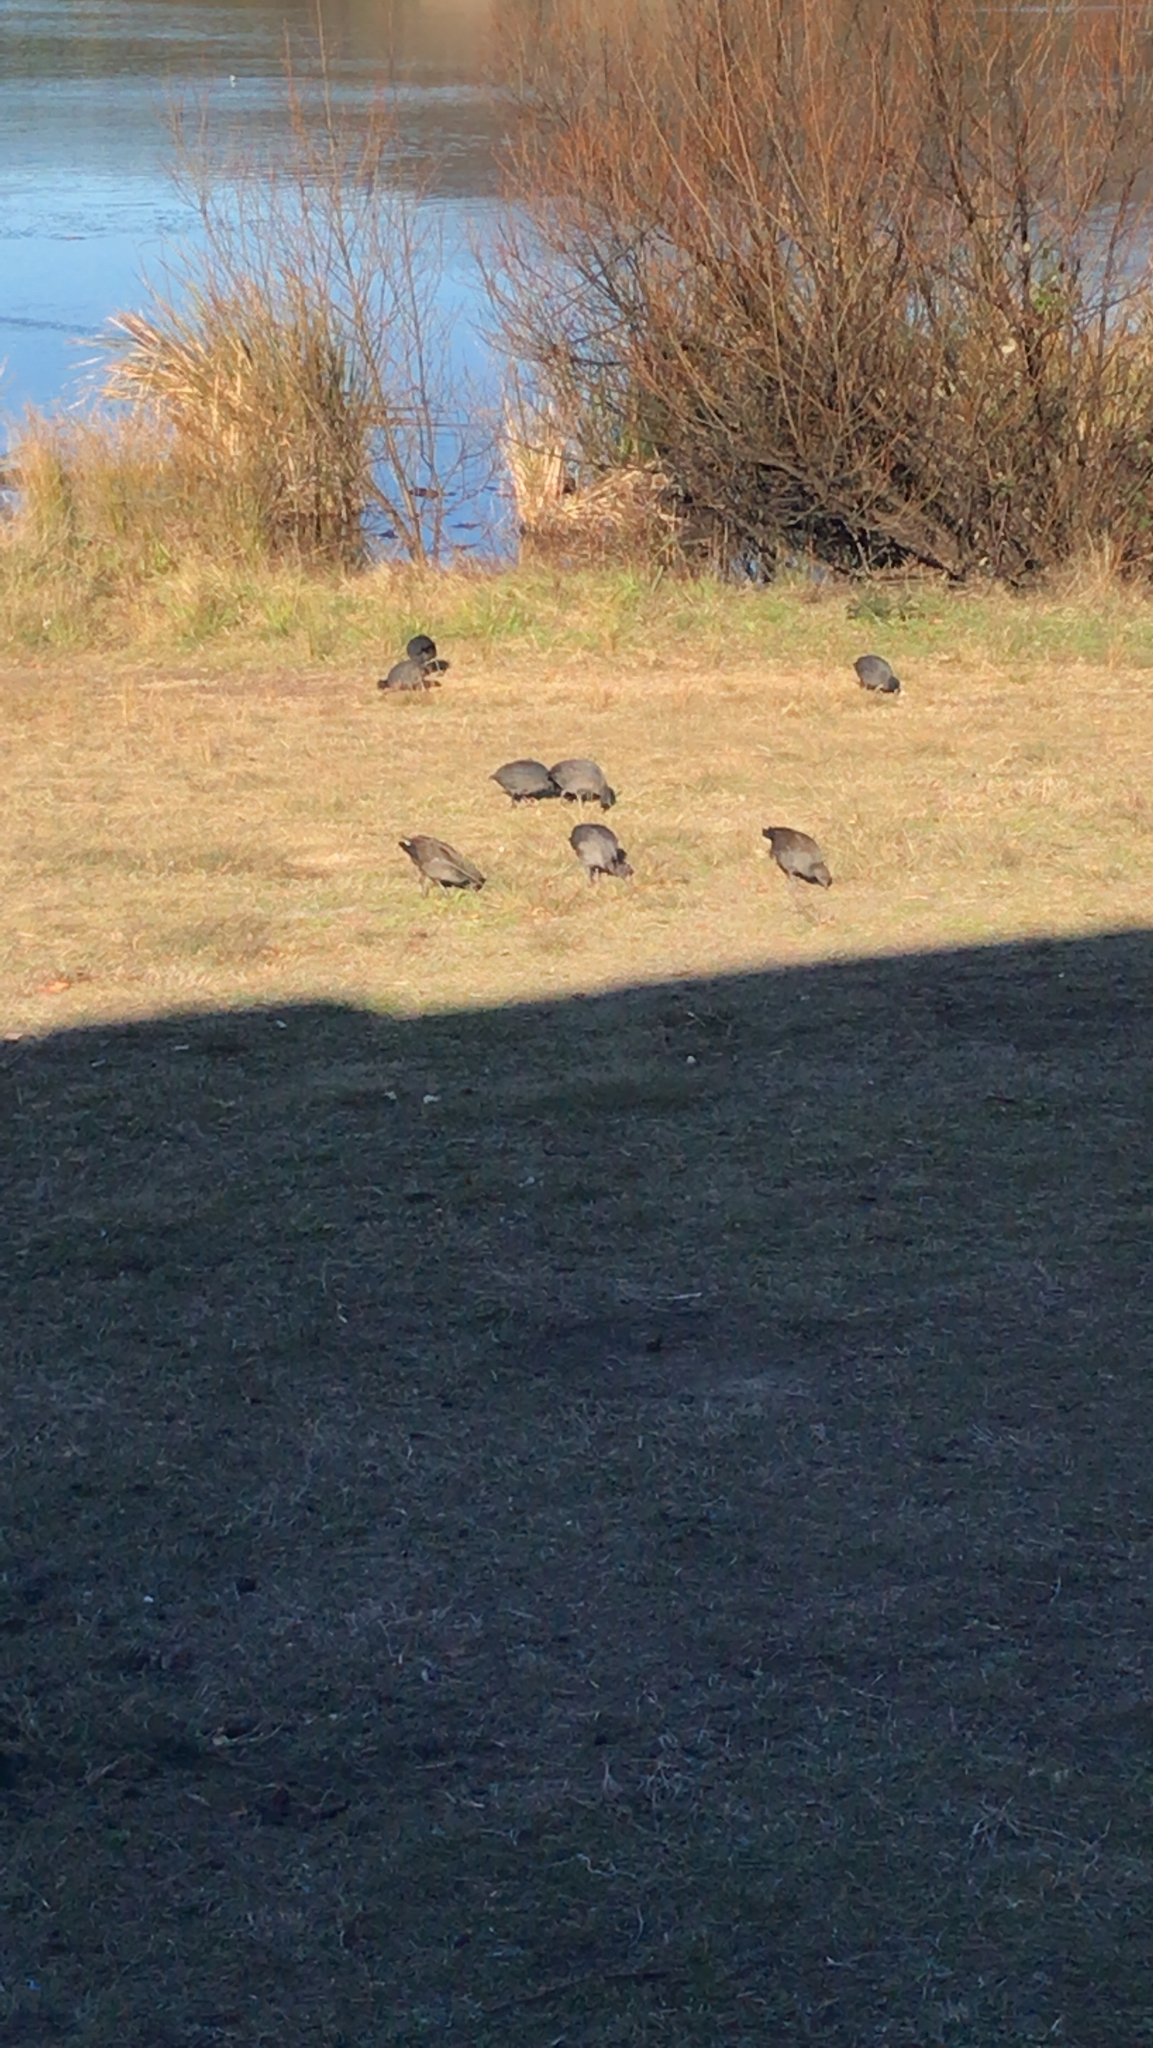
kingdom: Animalia
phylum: Chordata
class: Aves
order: Gruiformes
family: Rallidae
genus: Gallinula
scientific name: Gallinula tenebrosa
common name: Dusky moorhen
